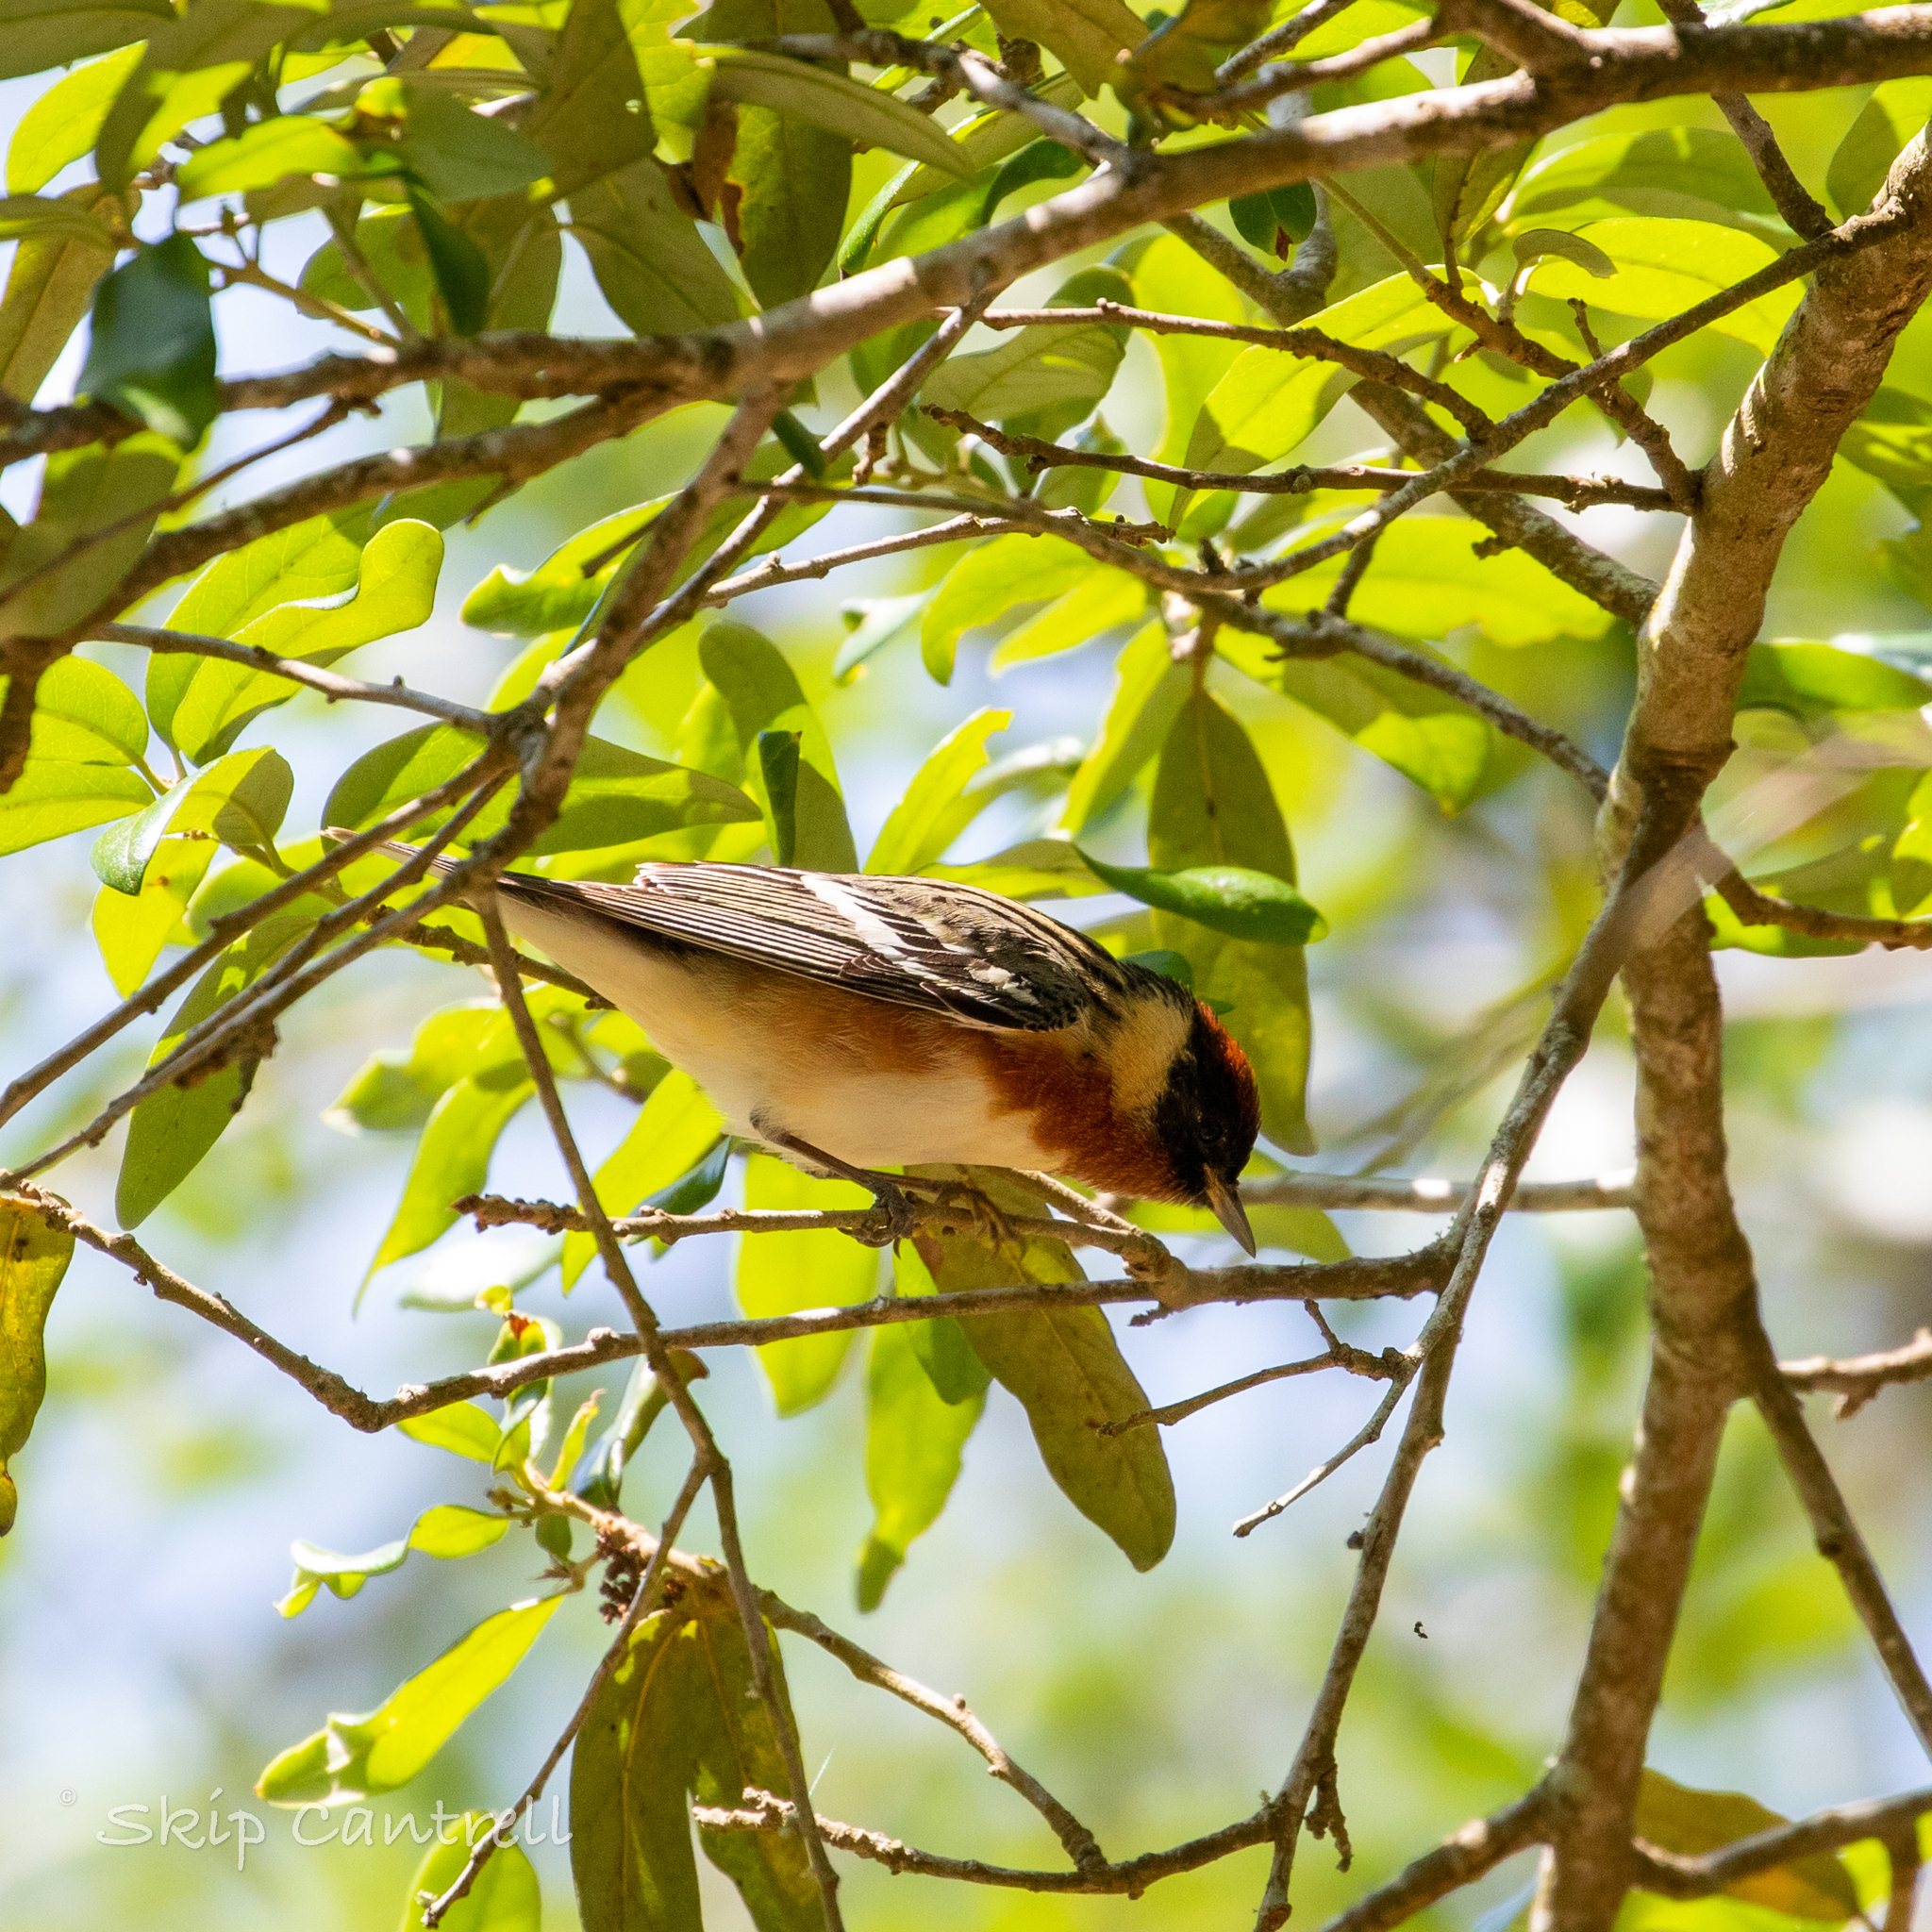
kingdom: Animalia
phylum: Chordata
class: Aves
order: Passeriformes
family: Parulidae
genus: Setophaga
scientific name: Setophaga castanea
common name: Bay-breasted warbler
